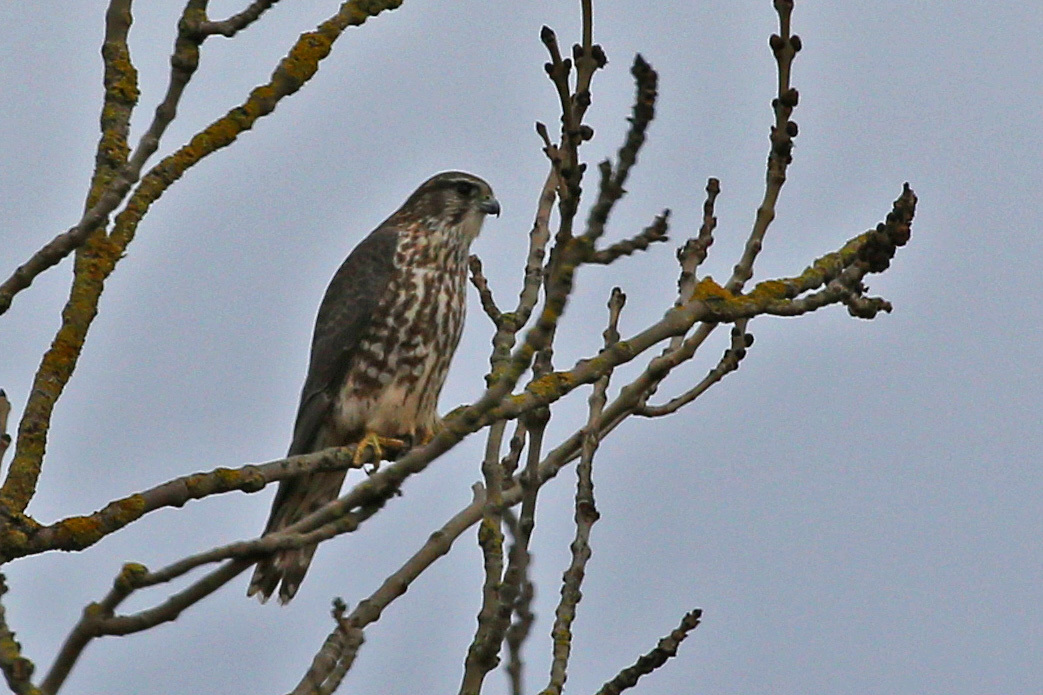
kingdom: Animalia
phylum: Chordata
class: Aves
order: Falconiformes
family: Falconidae
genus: Falco
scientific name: Falco columbarius
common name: Merlin
